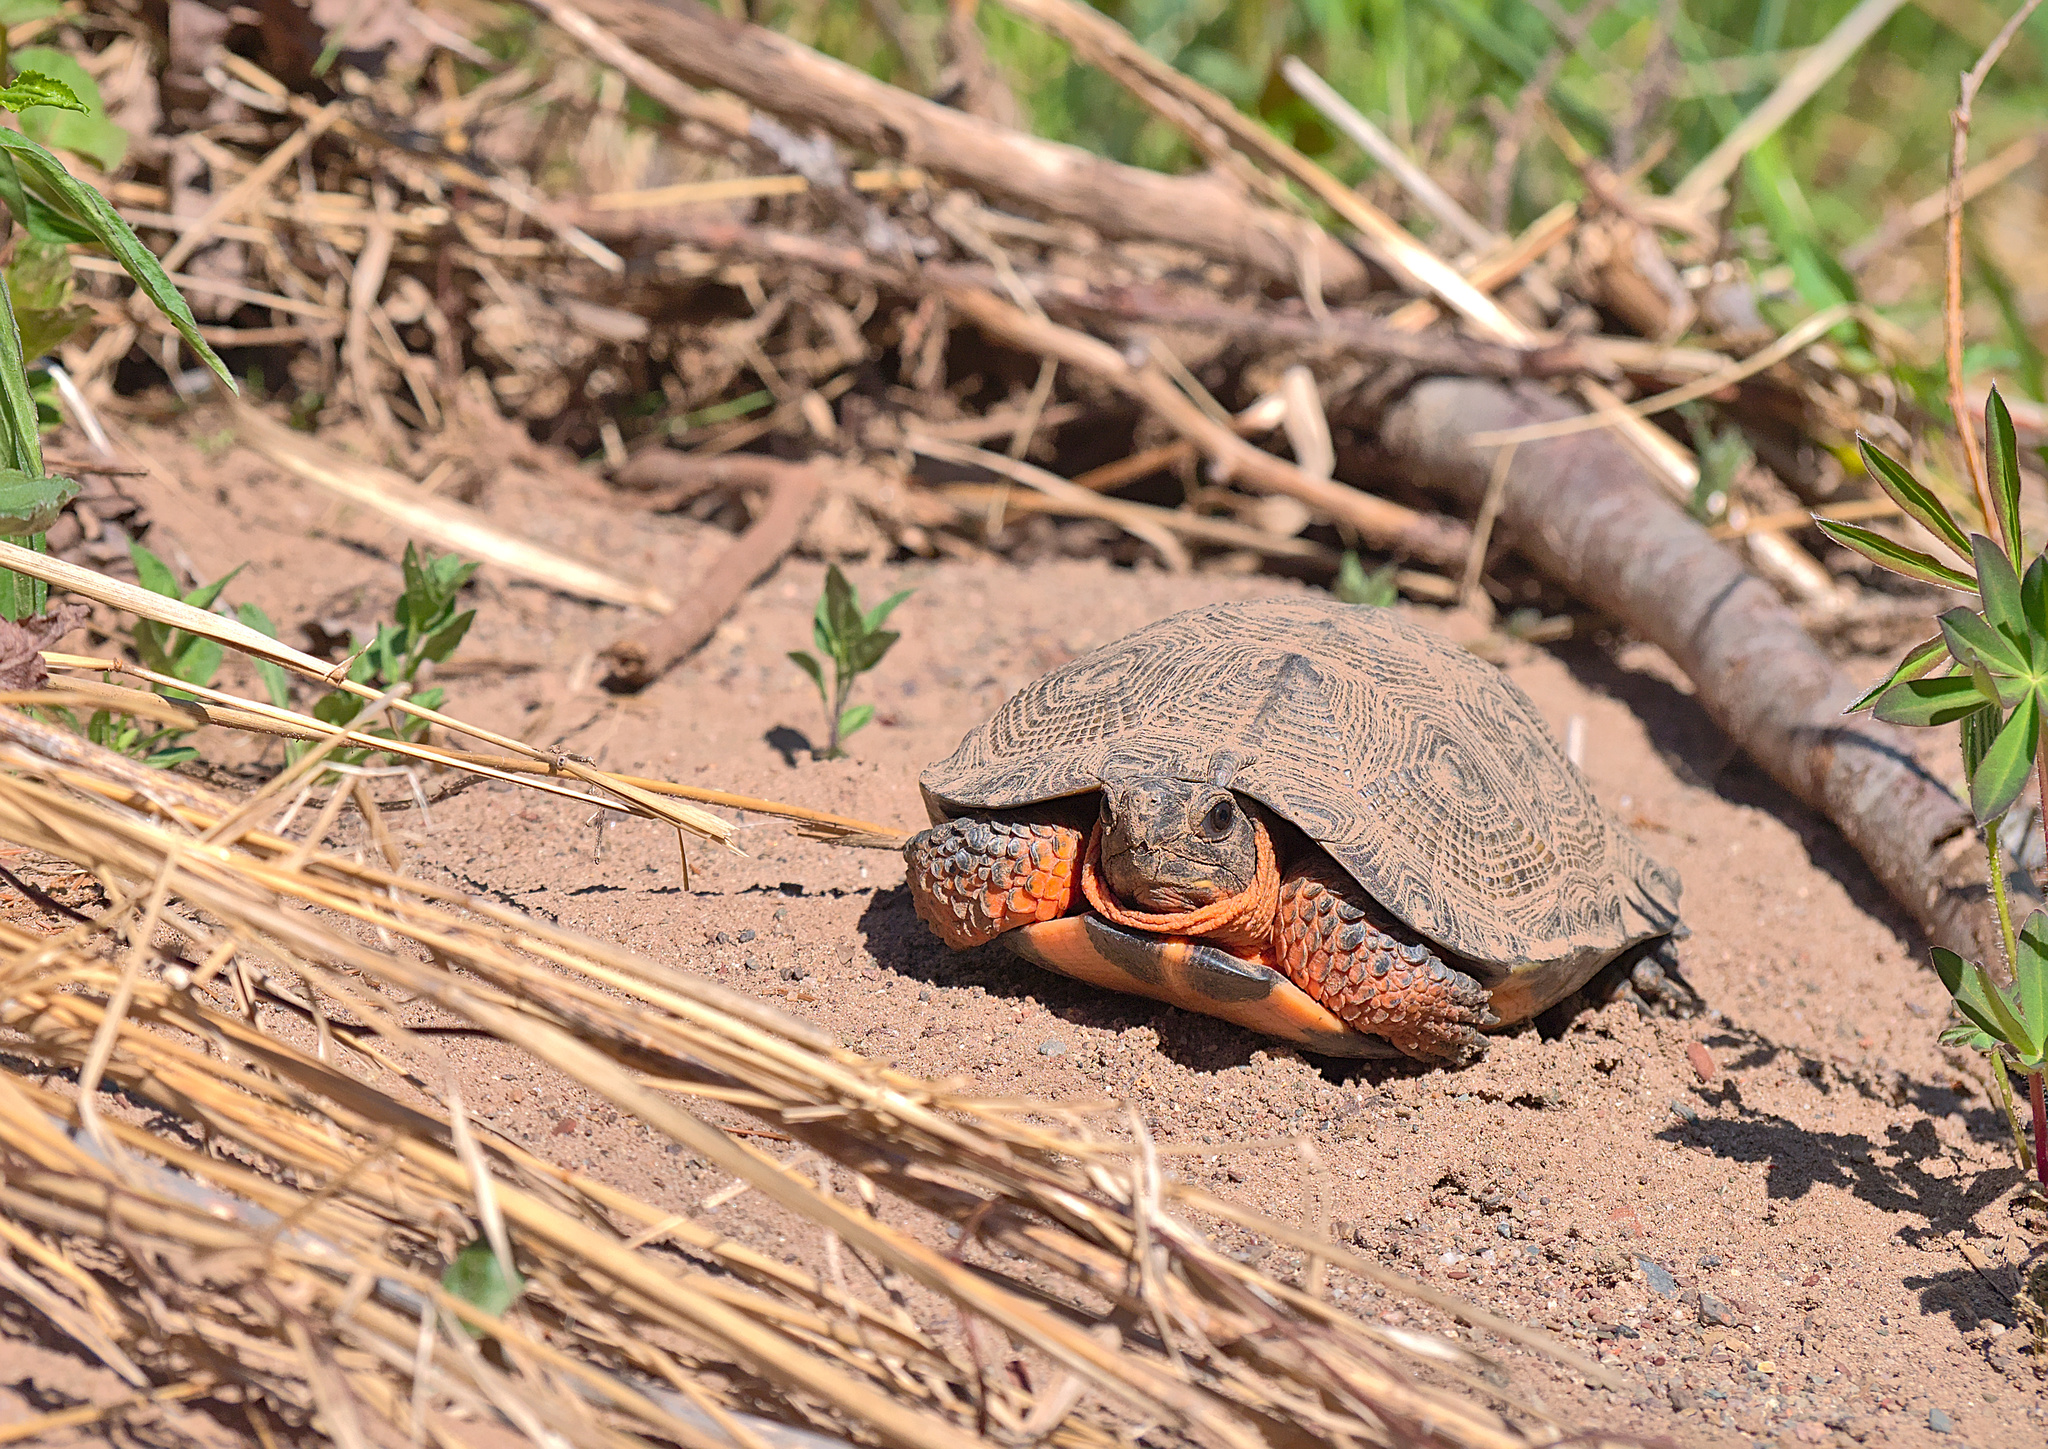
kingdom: Animalia
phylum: Chordata
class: Testudines
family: Emydidae
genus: Glyptemys
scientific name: Glyptemys insculpta
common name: Wood turtle
